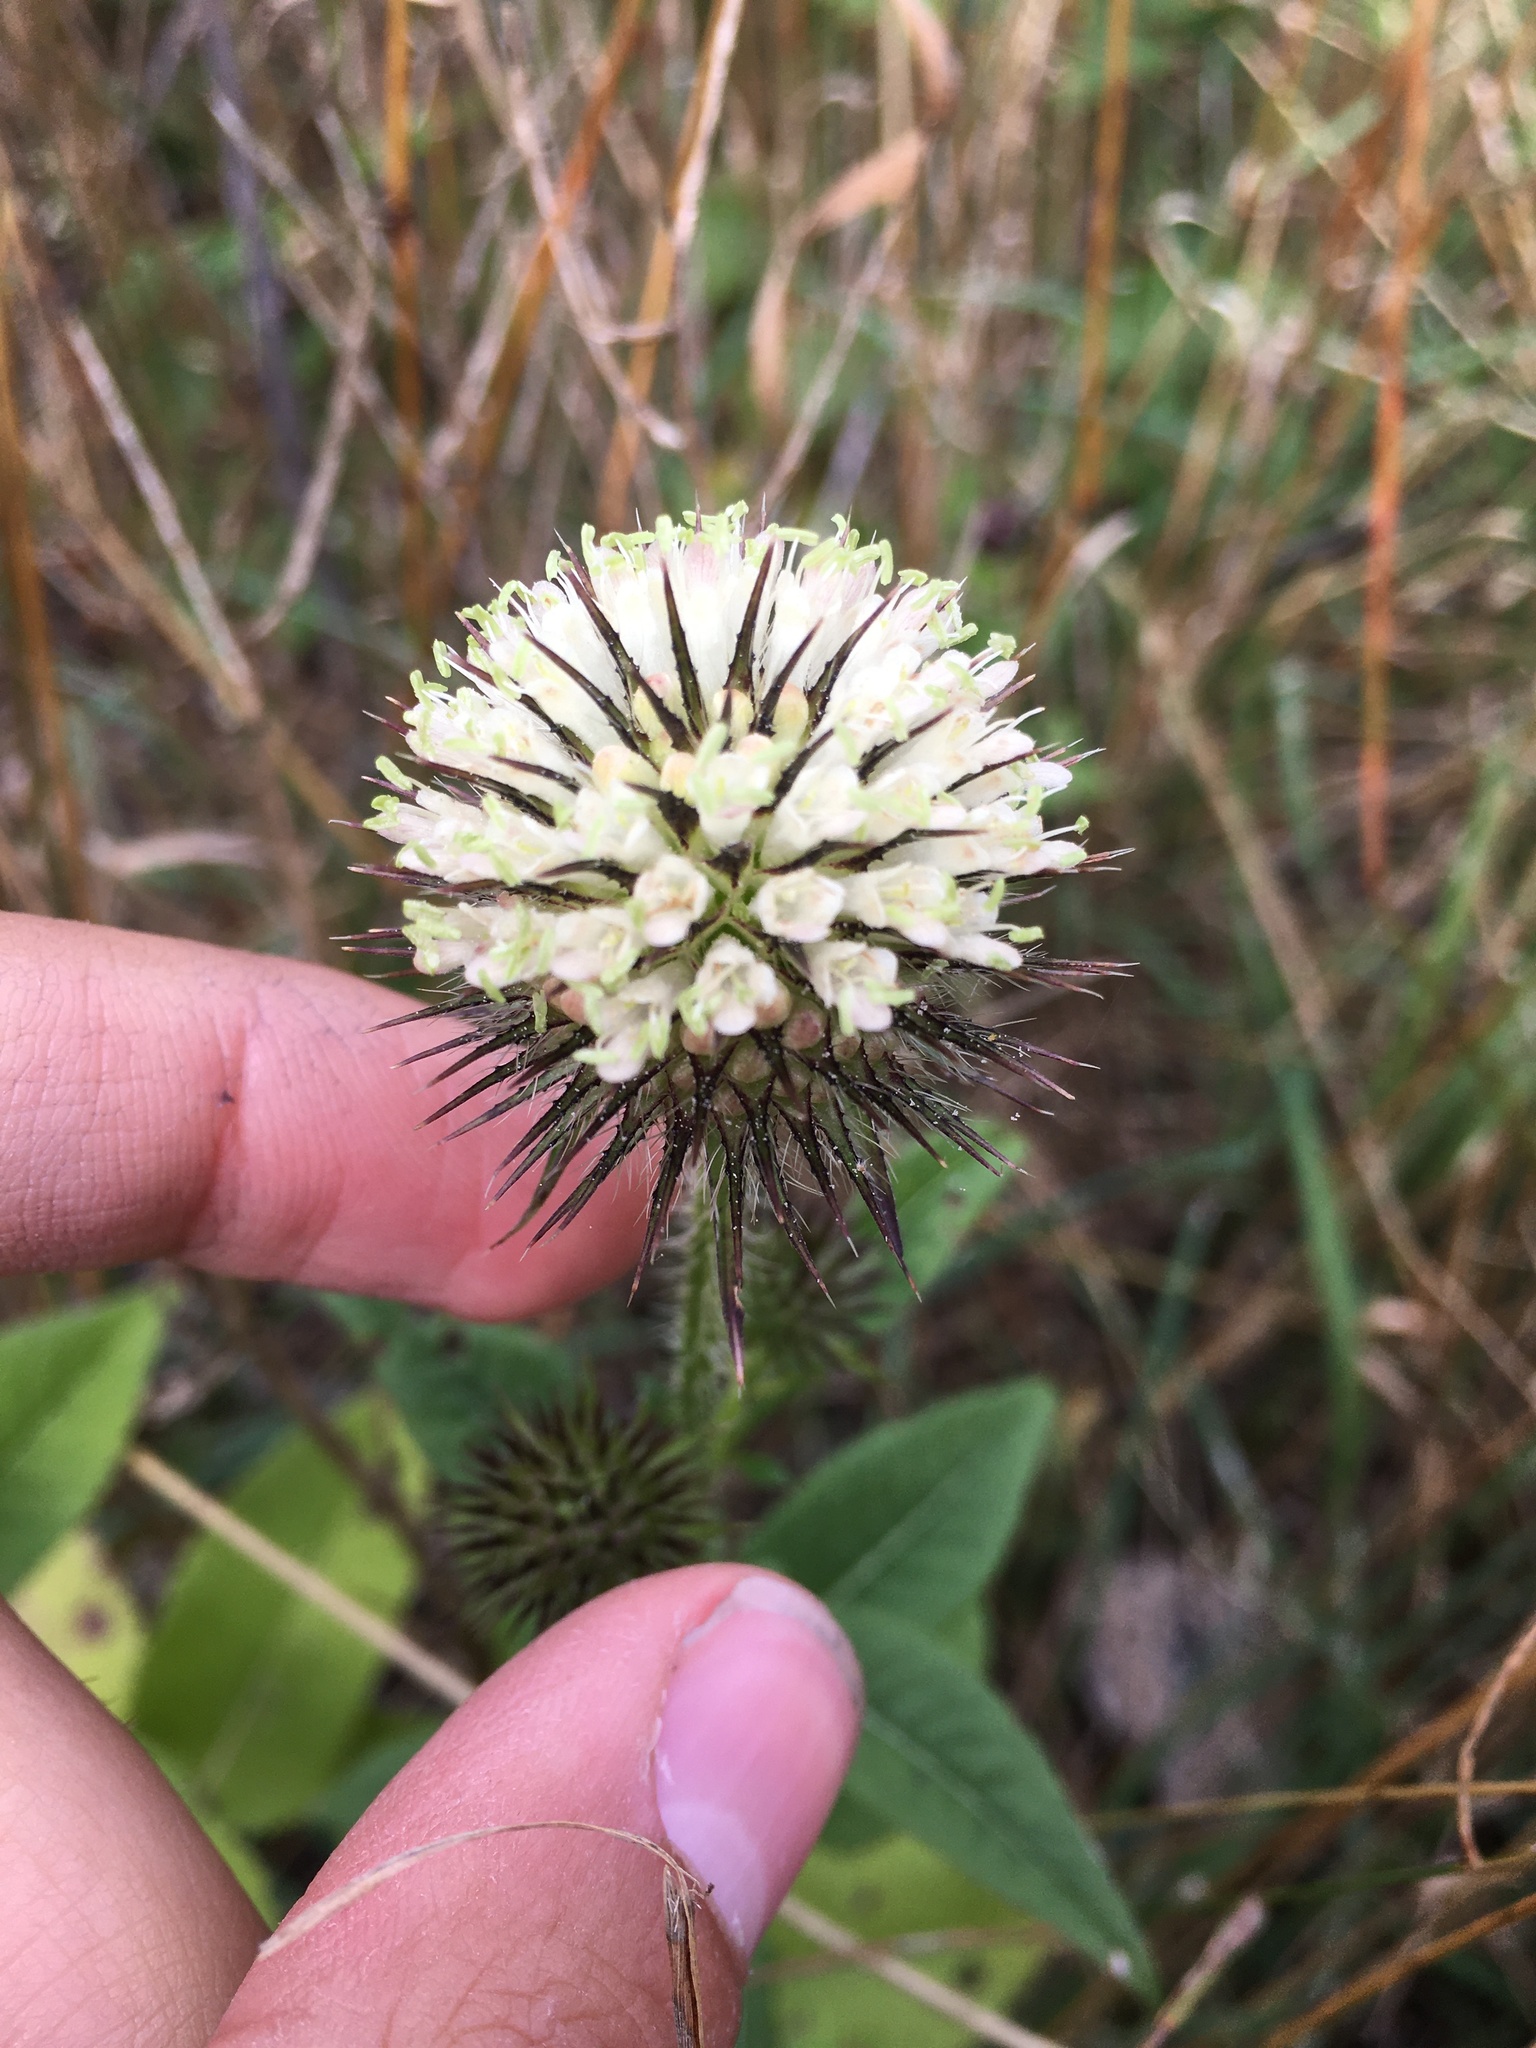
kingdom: Plantae
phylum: Tracheophyta
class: Magnoliopsida
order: Dipsacales
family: Caprifoliaceae
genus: Dipsacus
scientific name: Dipsacus strigosus
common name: Yellow-flowered teasel
